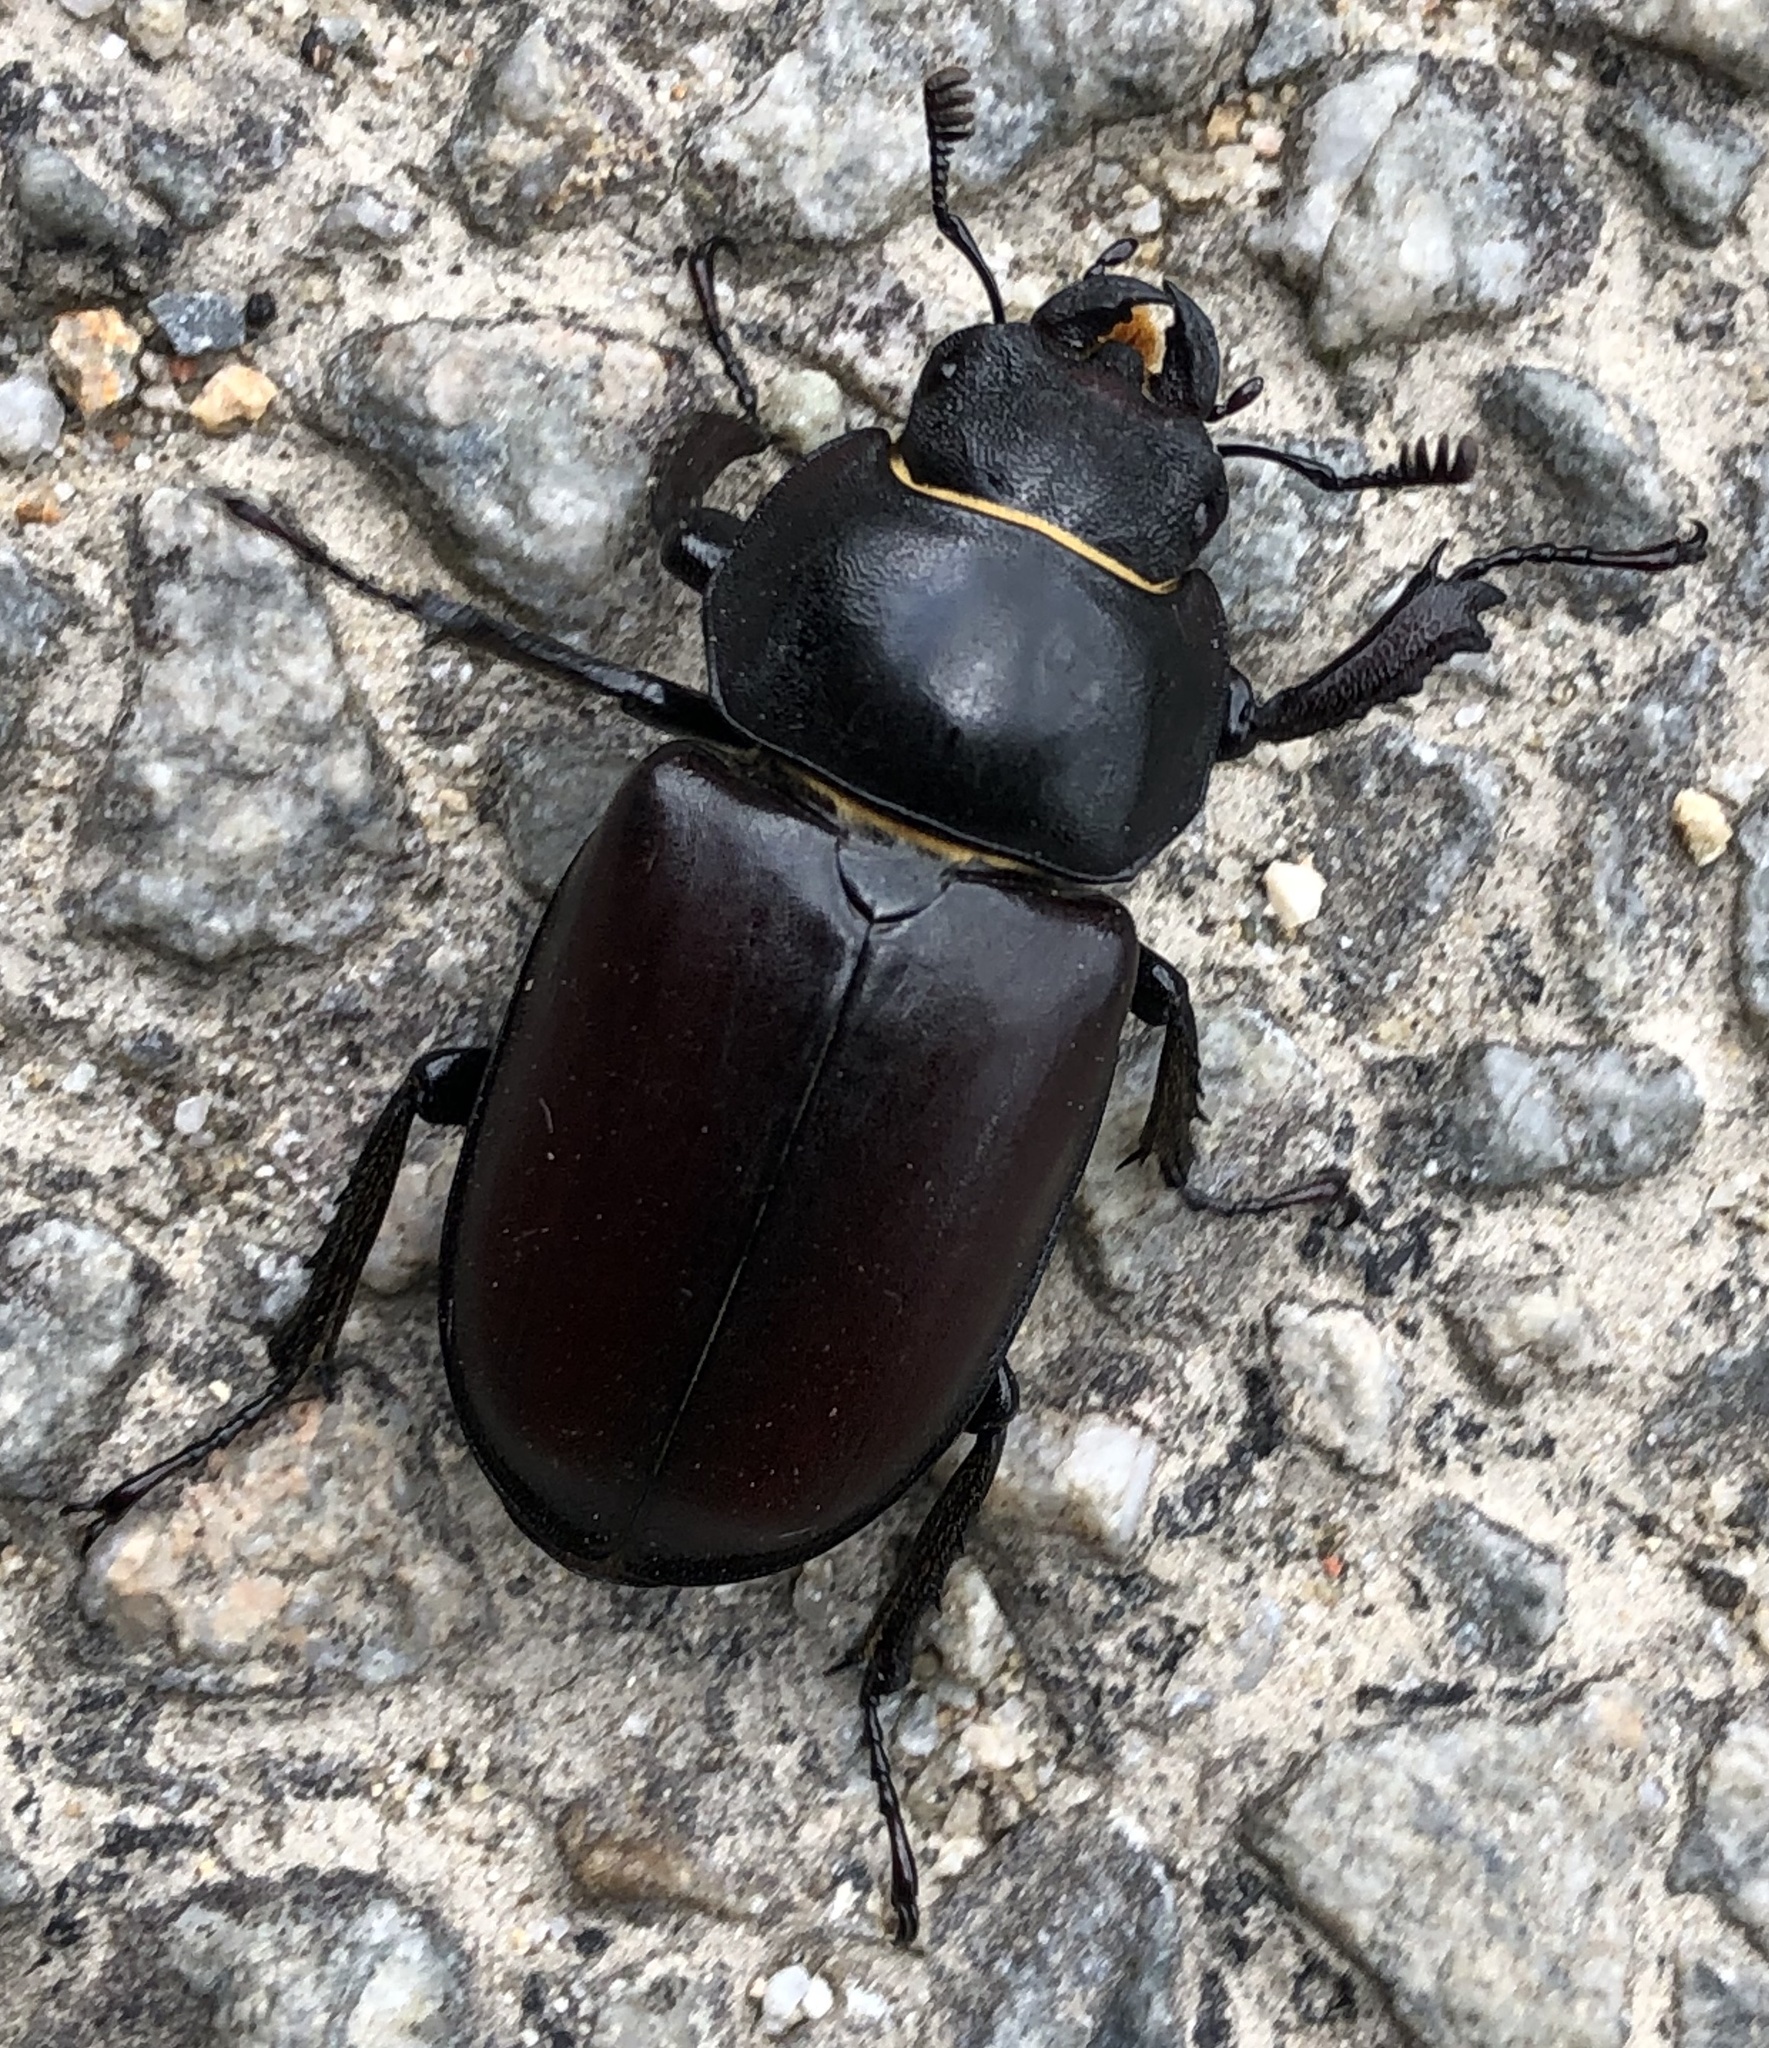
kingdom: Animalia
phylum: Arthropoda
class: Insecta
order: Coleoptera
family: Lucanidae
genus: Lucanus
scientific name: Lucanus cervus
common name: Stag beetle
